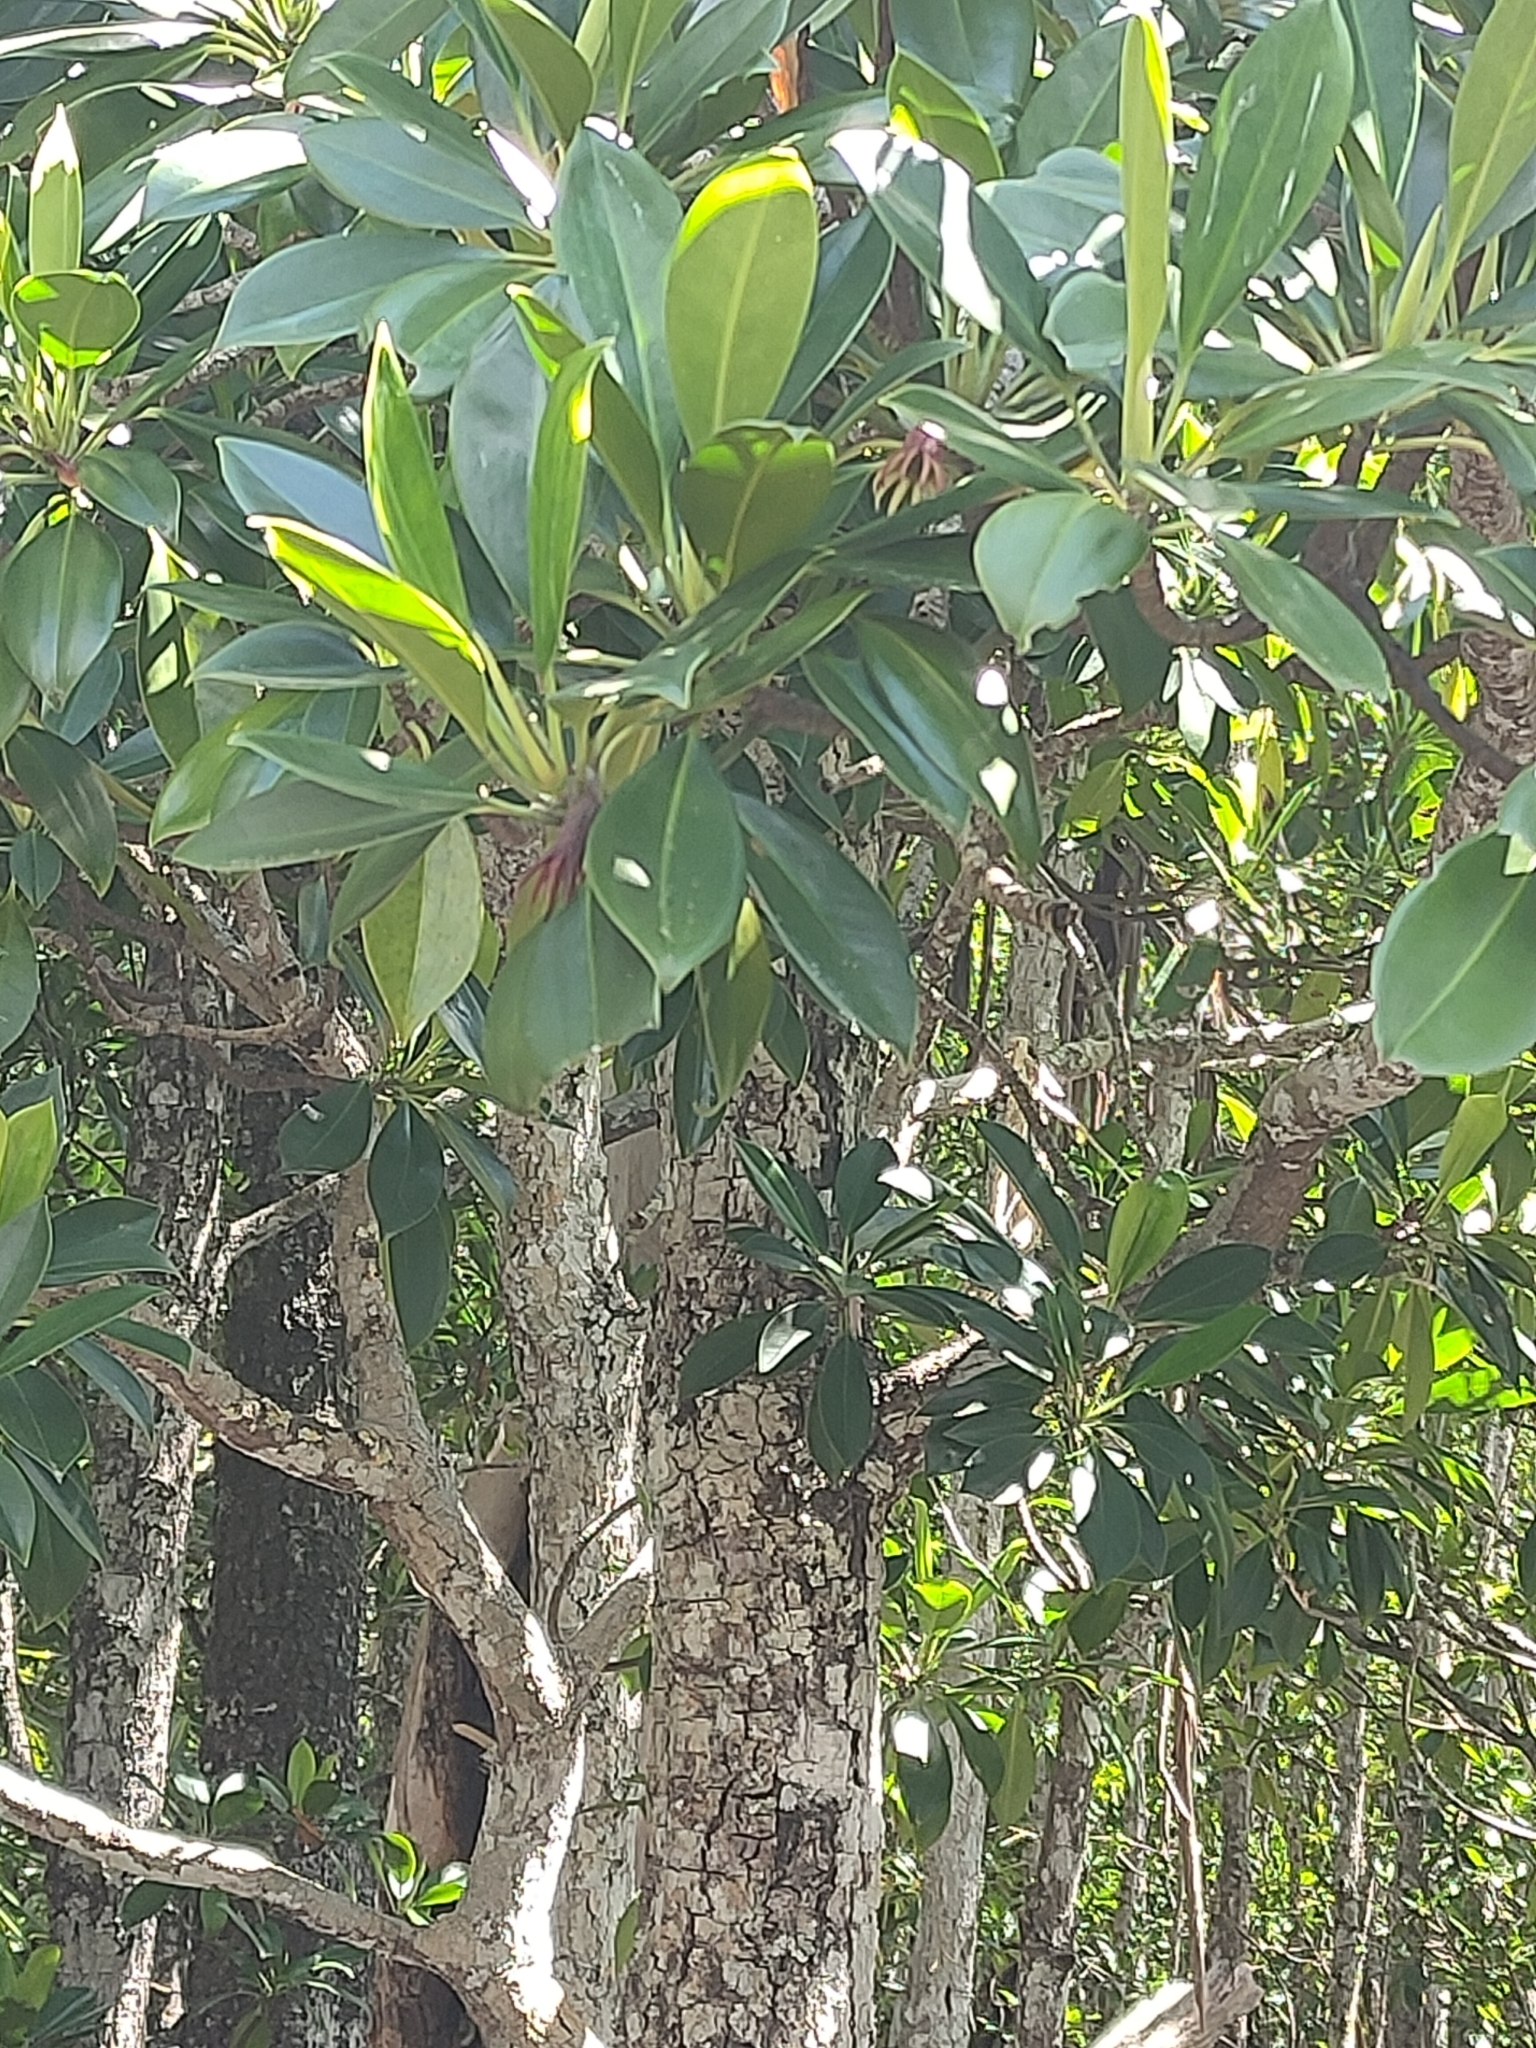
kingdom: Plantae
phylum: Tracheophyta
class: Magnoliopsida
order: Malpighiales
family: Rhizophoraceae
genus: Bruguiera
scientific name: Bruguiera gymnorhiza
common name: Oriental mangrove
